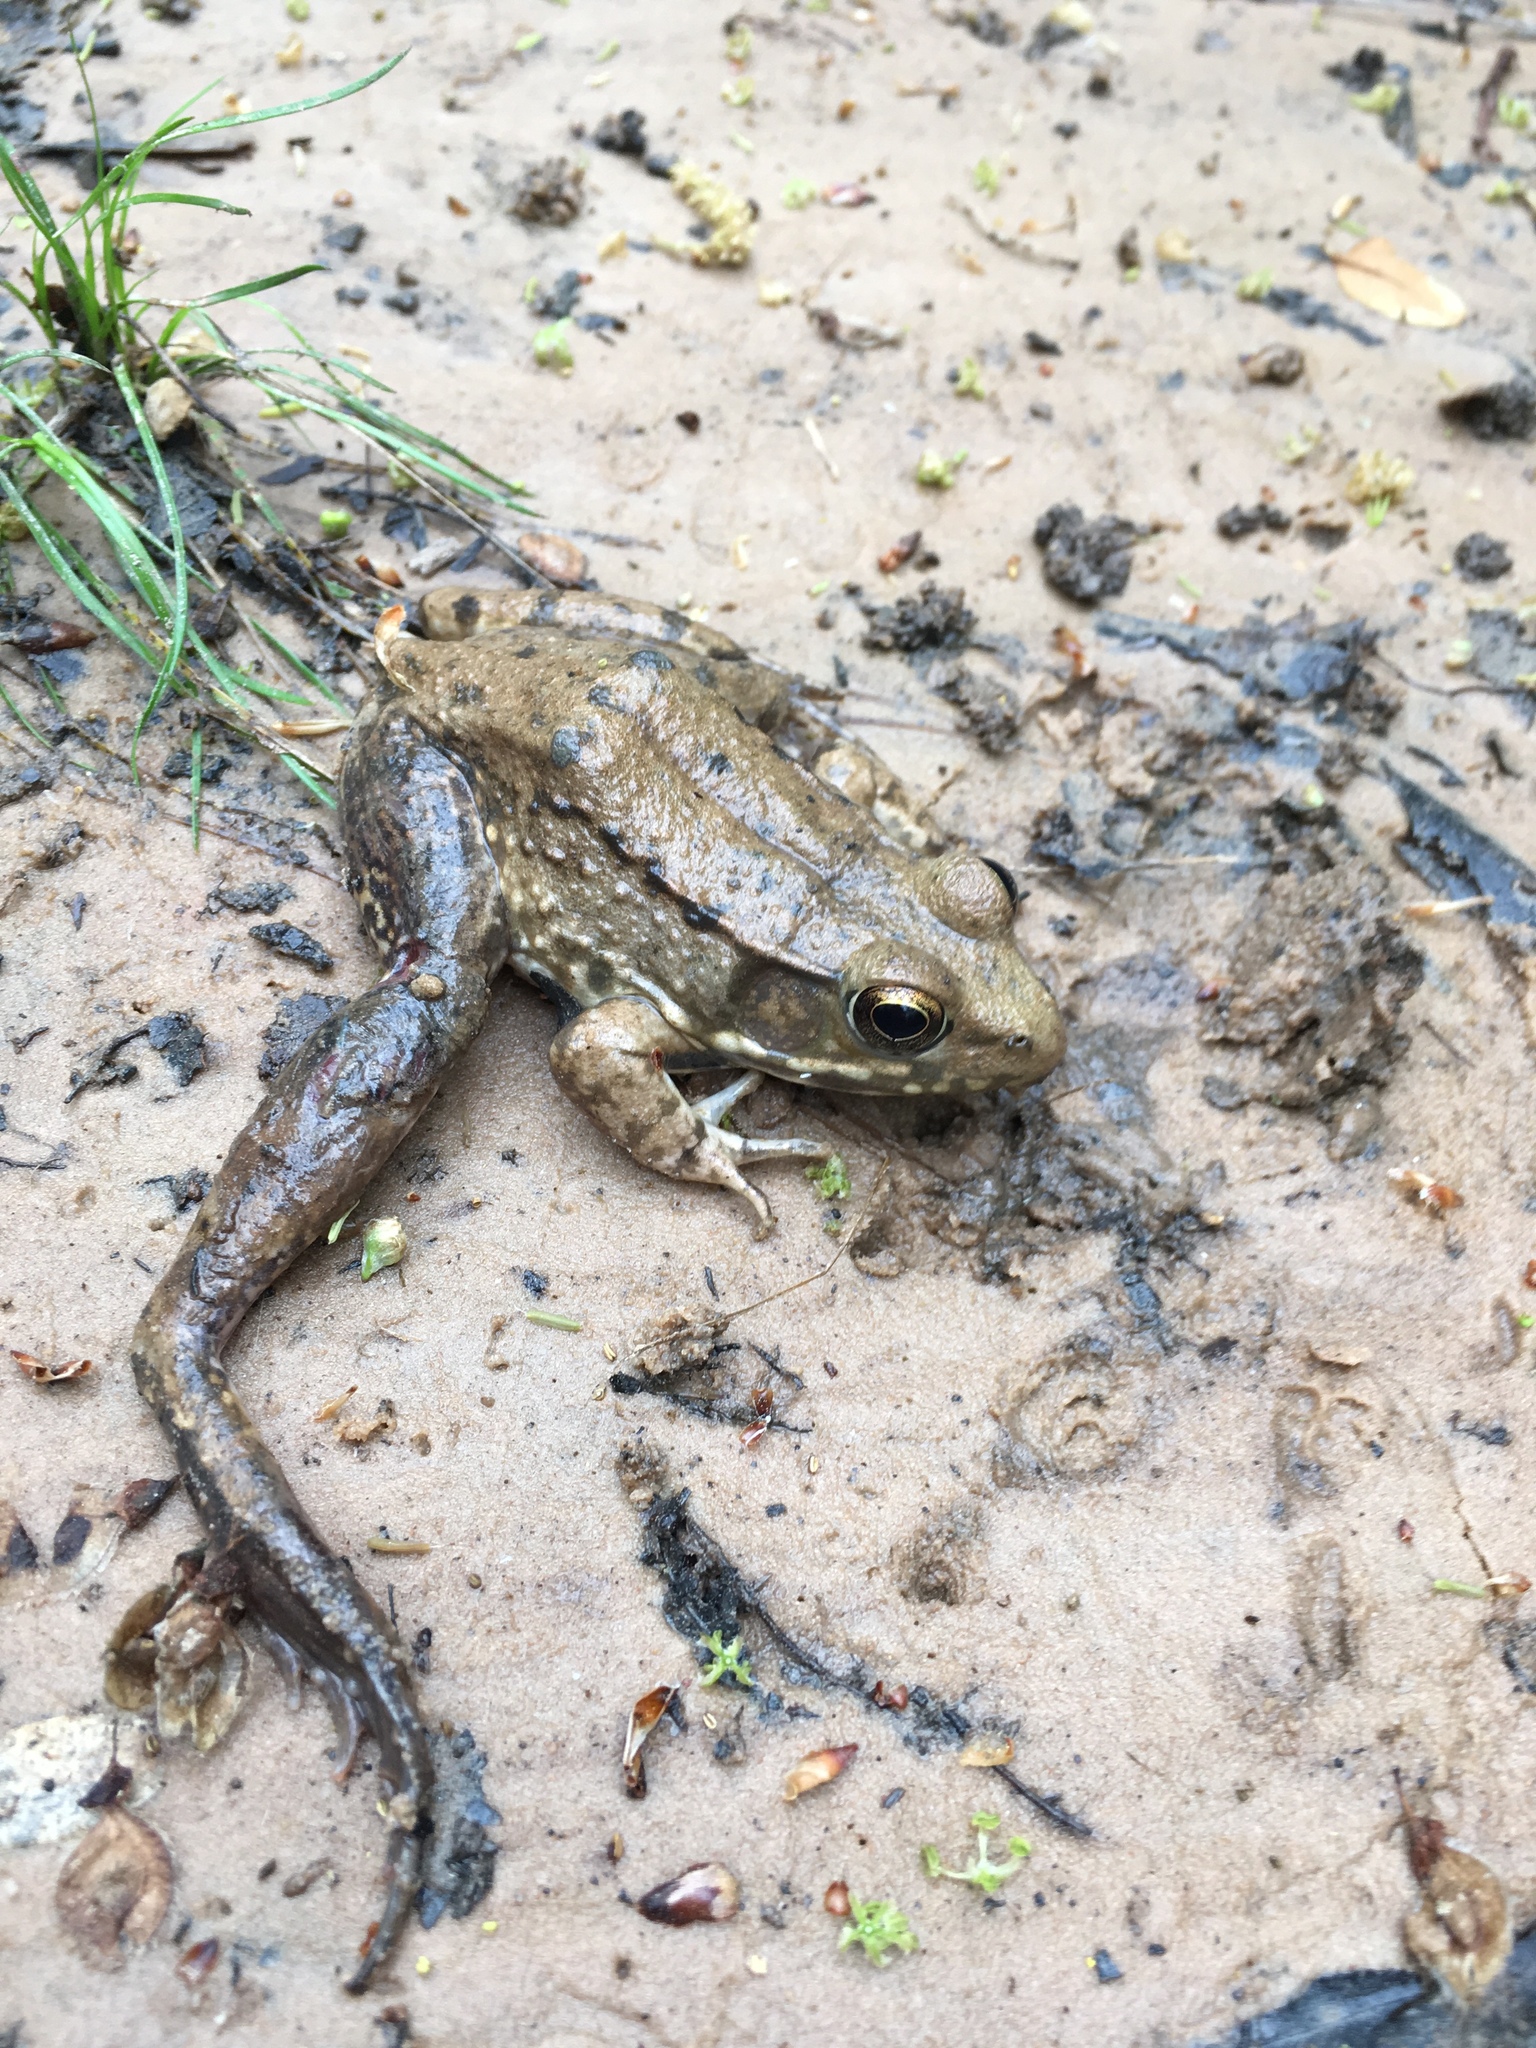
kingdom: Animalia
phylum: Chordata
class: Amphibia
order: Anura
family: Ranidae
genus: Lithobates
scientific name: Lithobates clamitans
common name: Green frog
